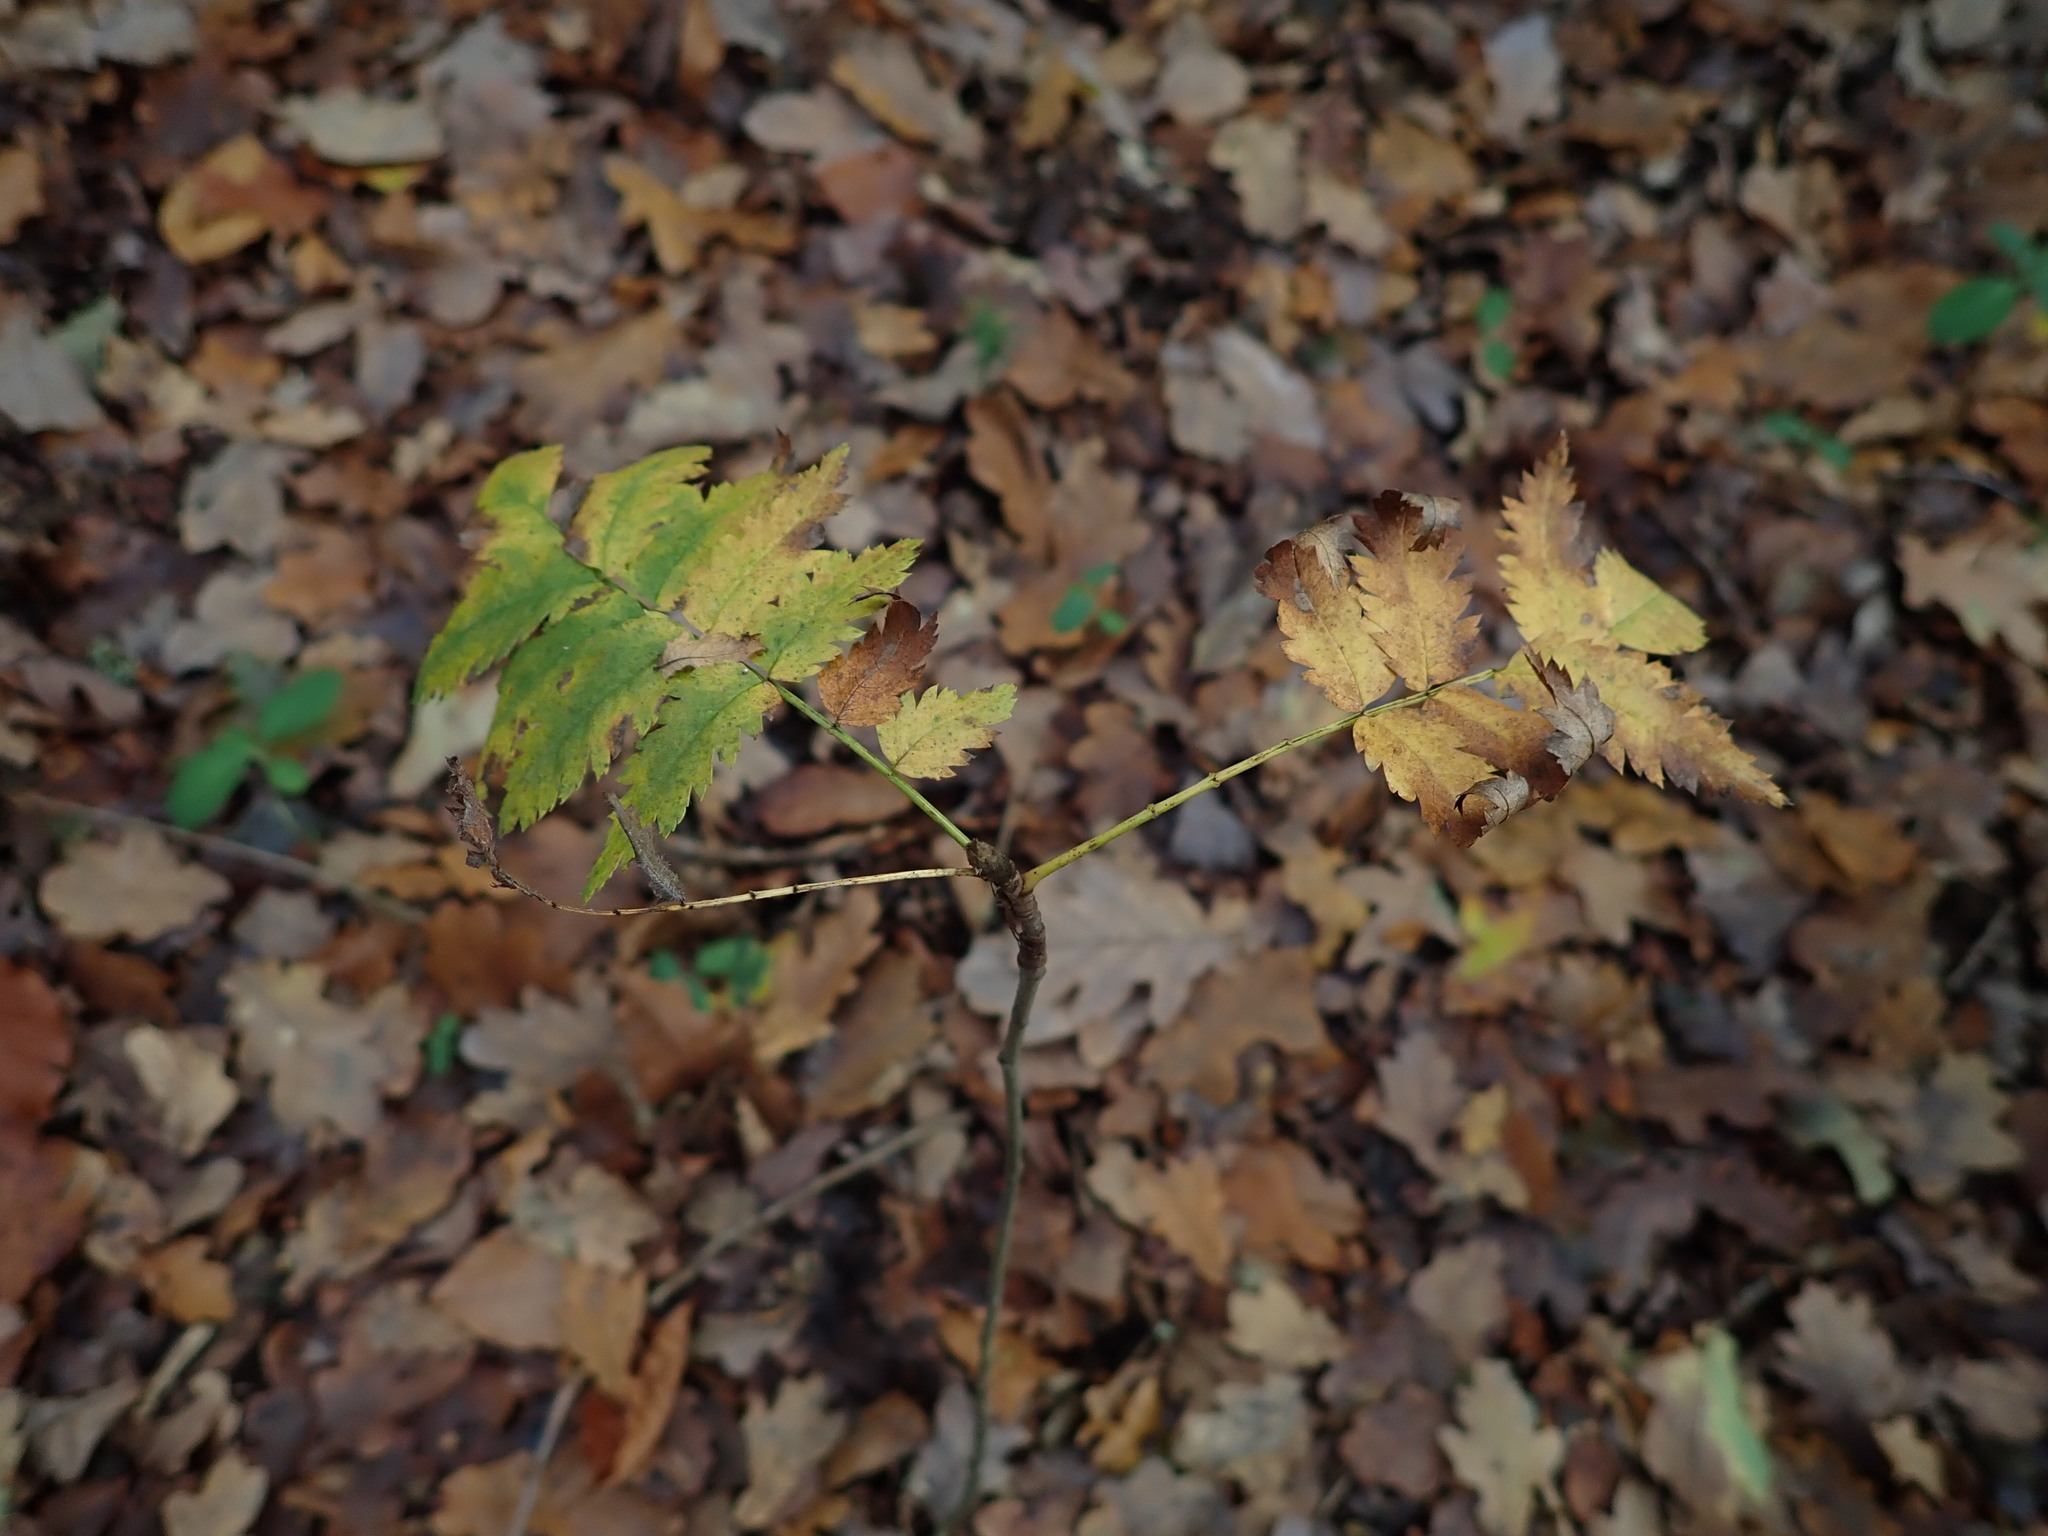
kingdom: Plantae
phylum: Tracheophyta
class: Magnoliopsida
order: Rosales
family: Rosaceae
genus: Sorbus
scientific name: Sorbus aucuparia
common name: Rowan
